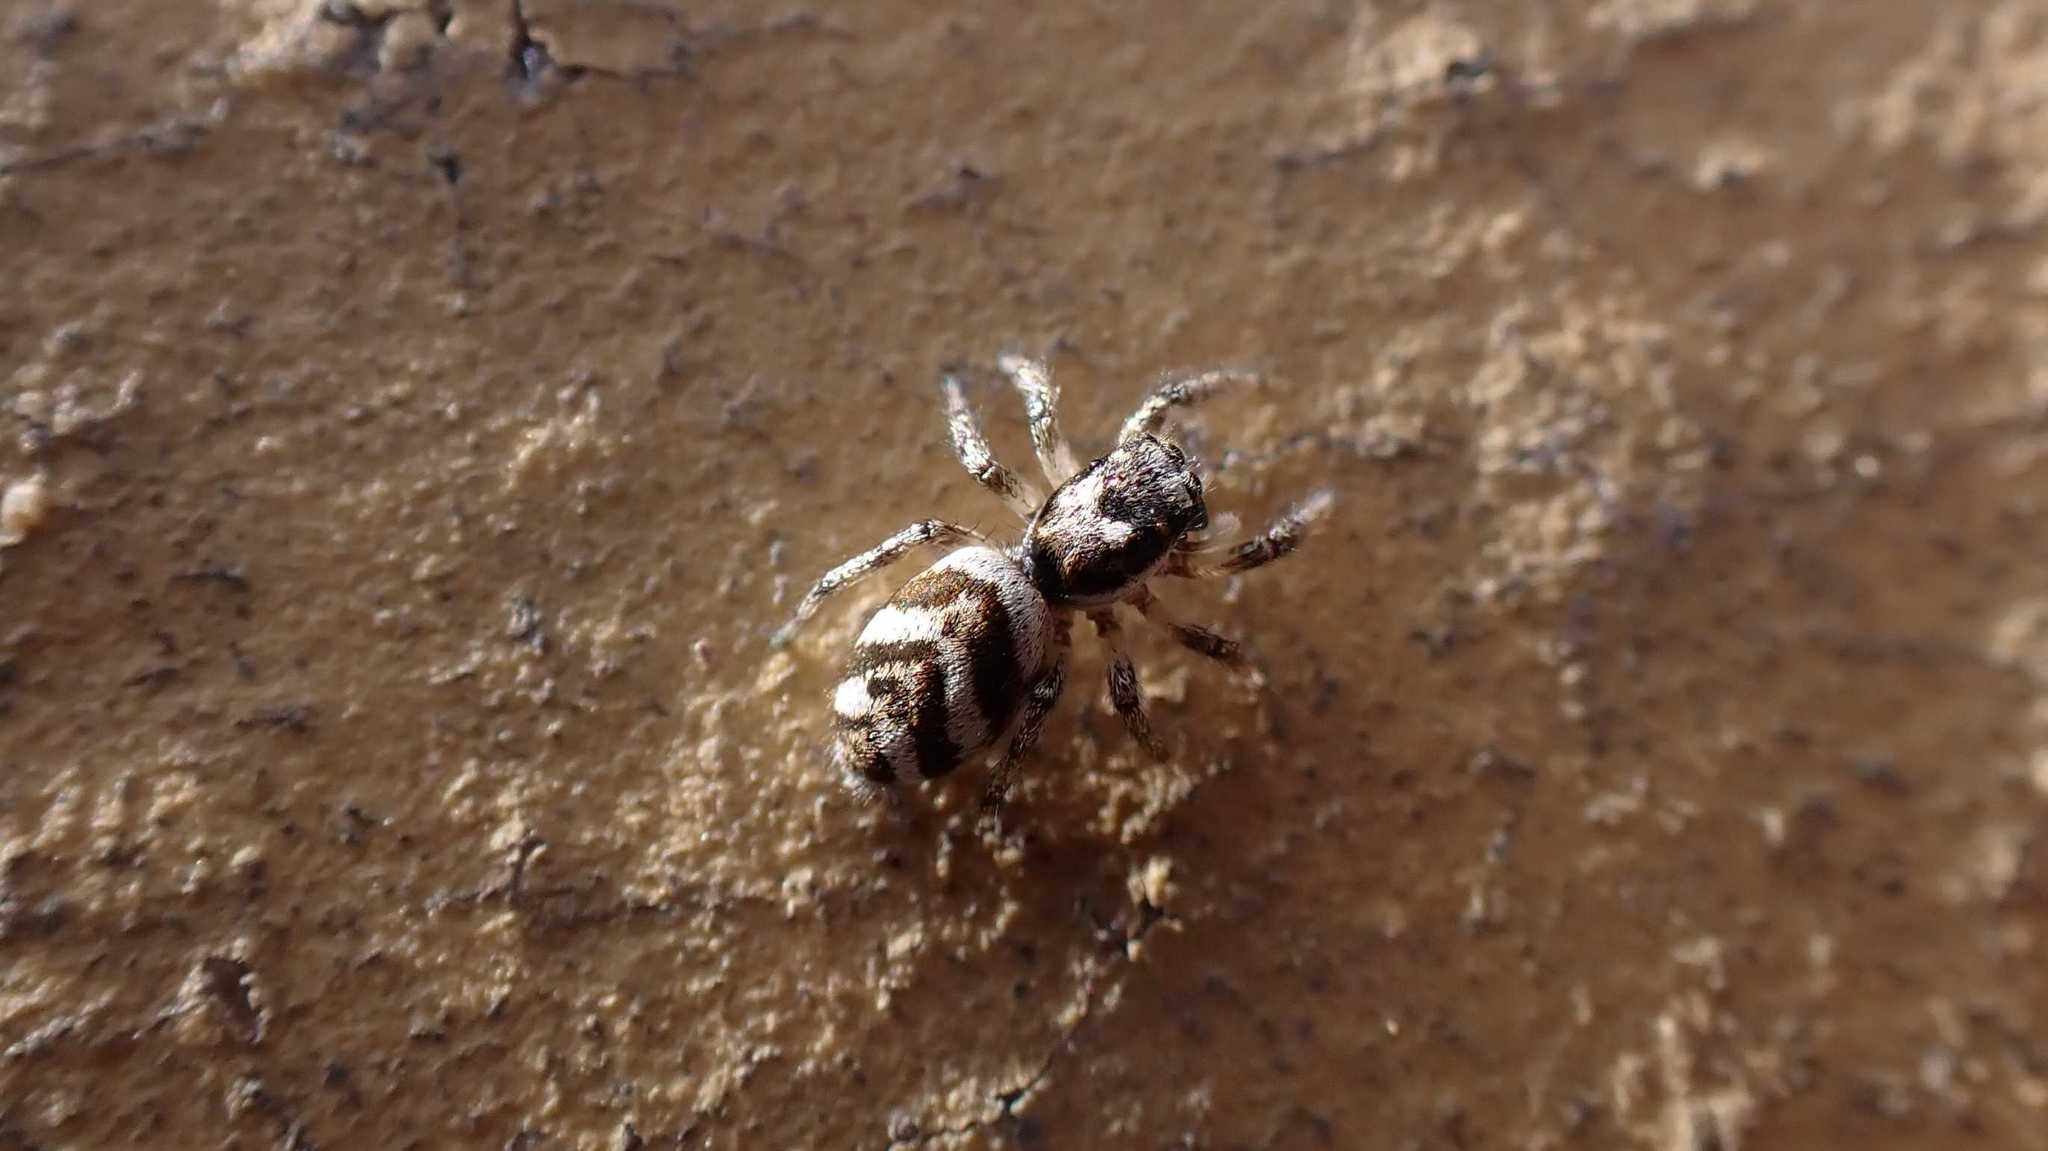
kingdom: Animalia
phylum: Arthropoda
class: Arachnida
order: Araneae
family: Salticidae
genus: Salticus
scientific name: Salticus scenicus
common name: Zebra jumper
